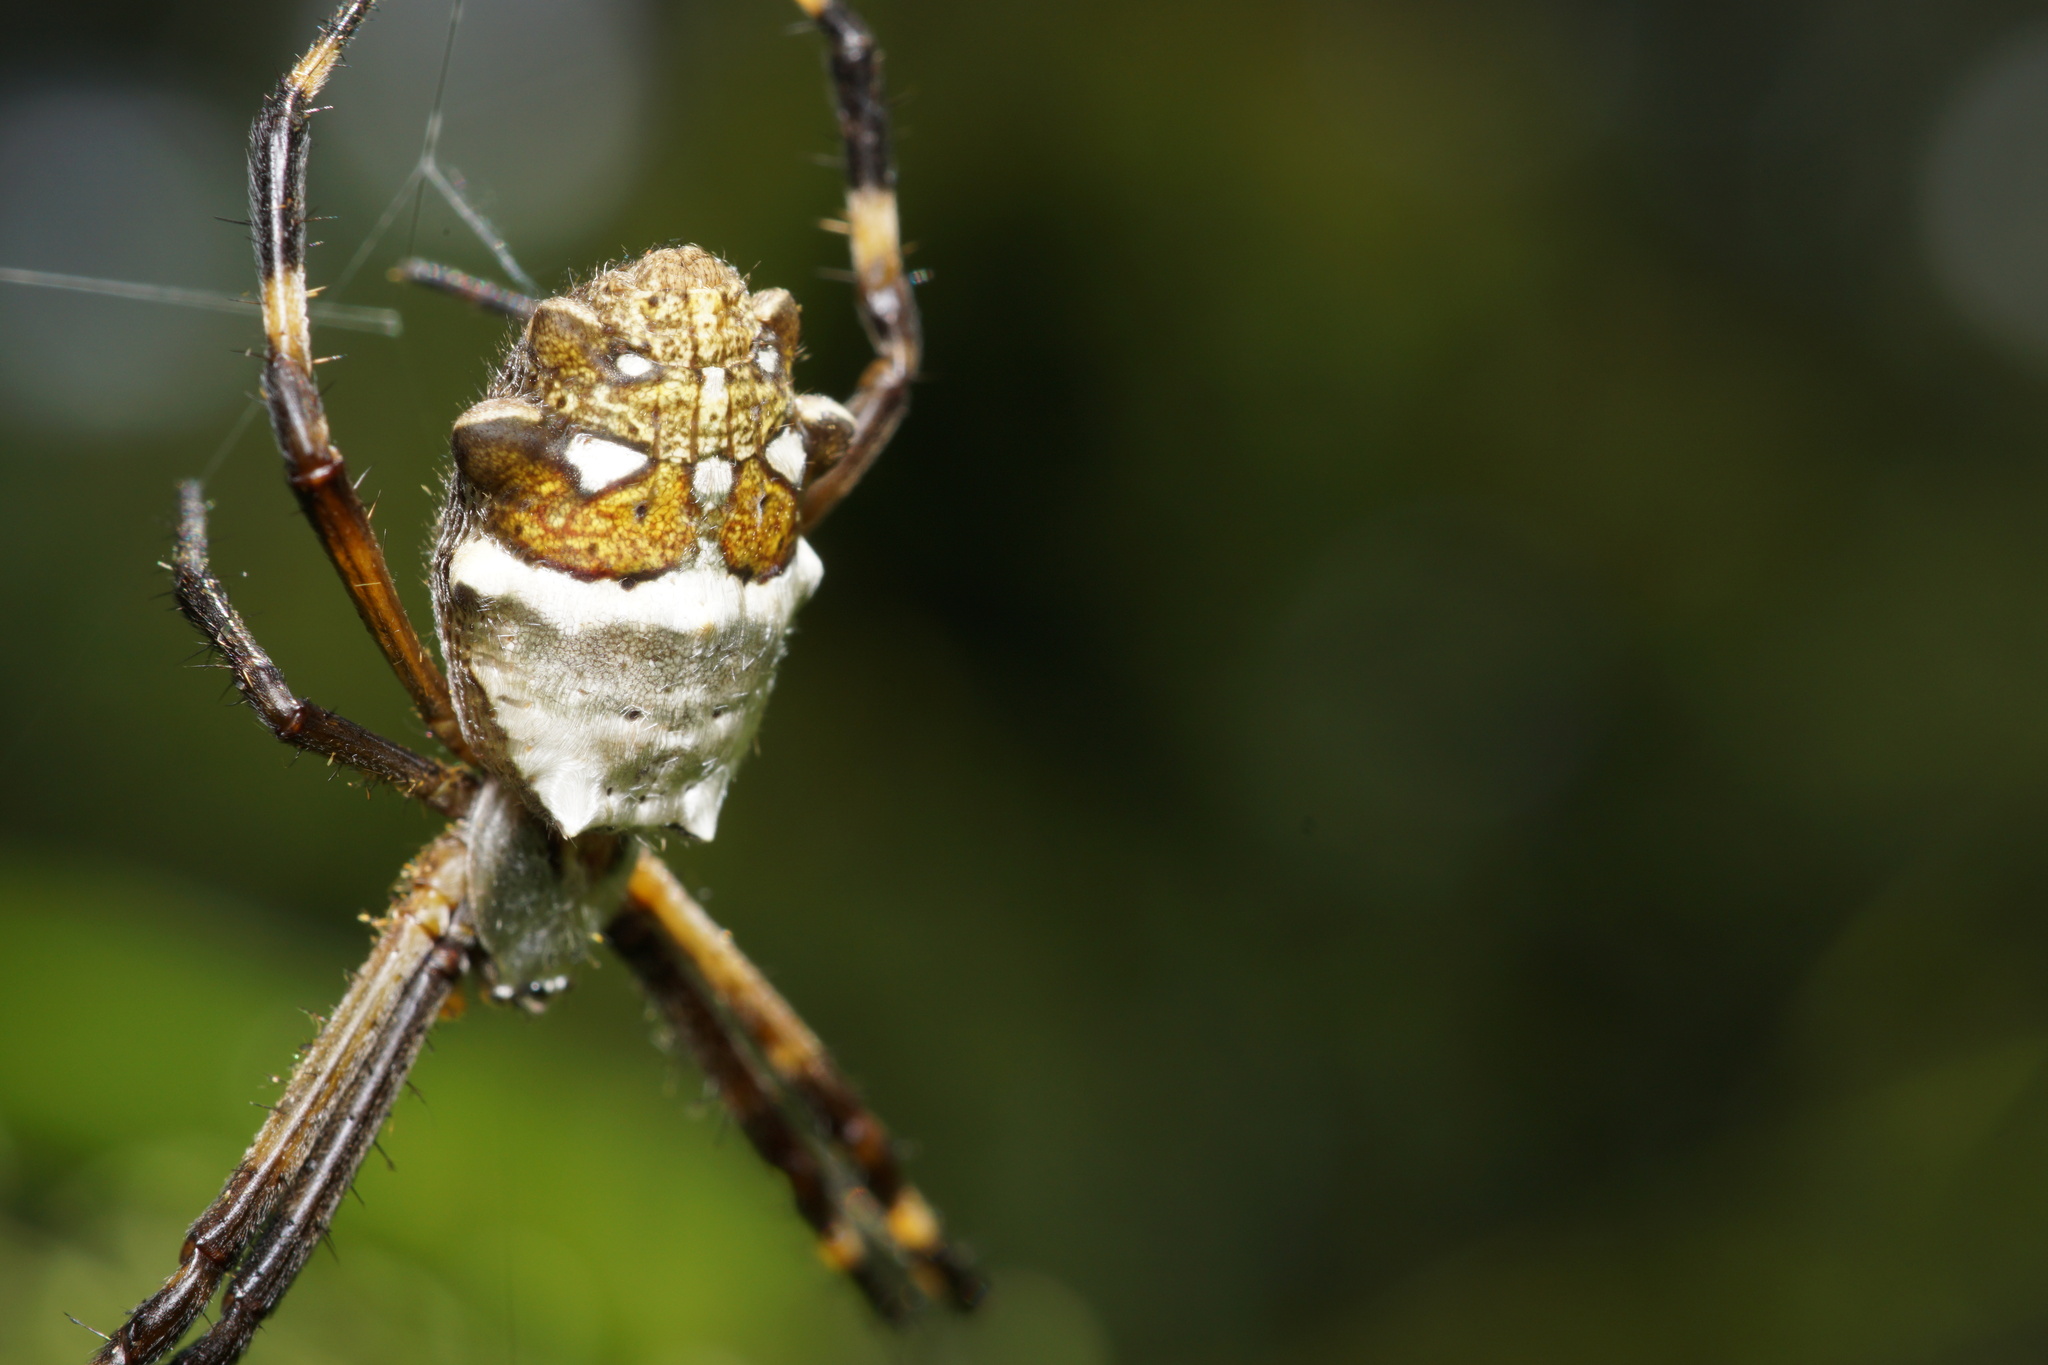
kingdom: Animalia
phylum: Arthropoda
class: Arachnida
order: Araneae
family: Araneidae
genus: Argiope
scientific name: Argiope argentata
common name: Orb weavers
